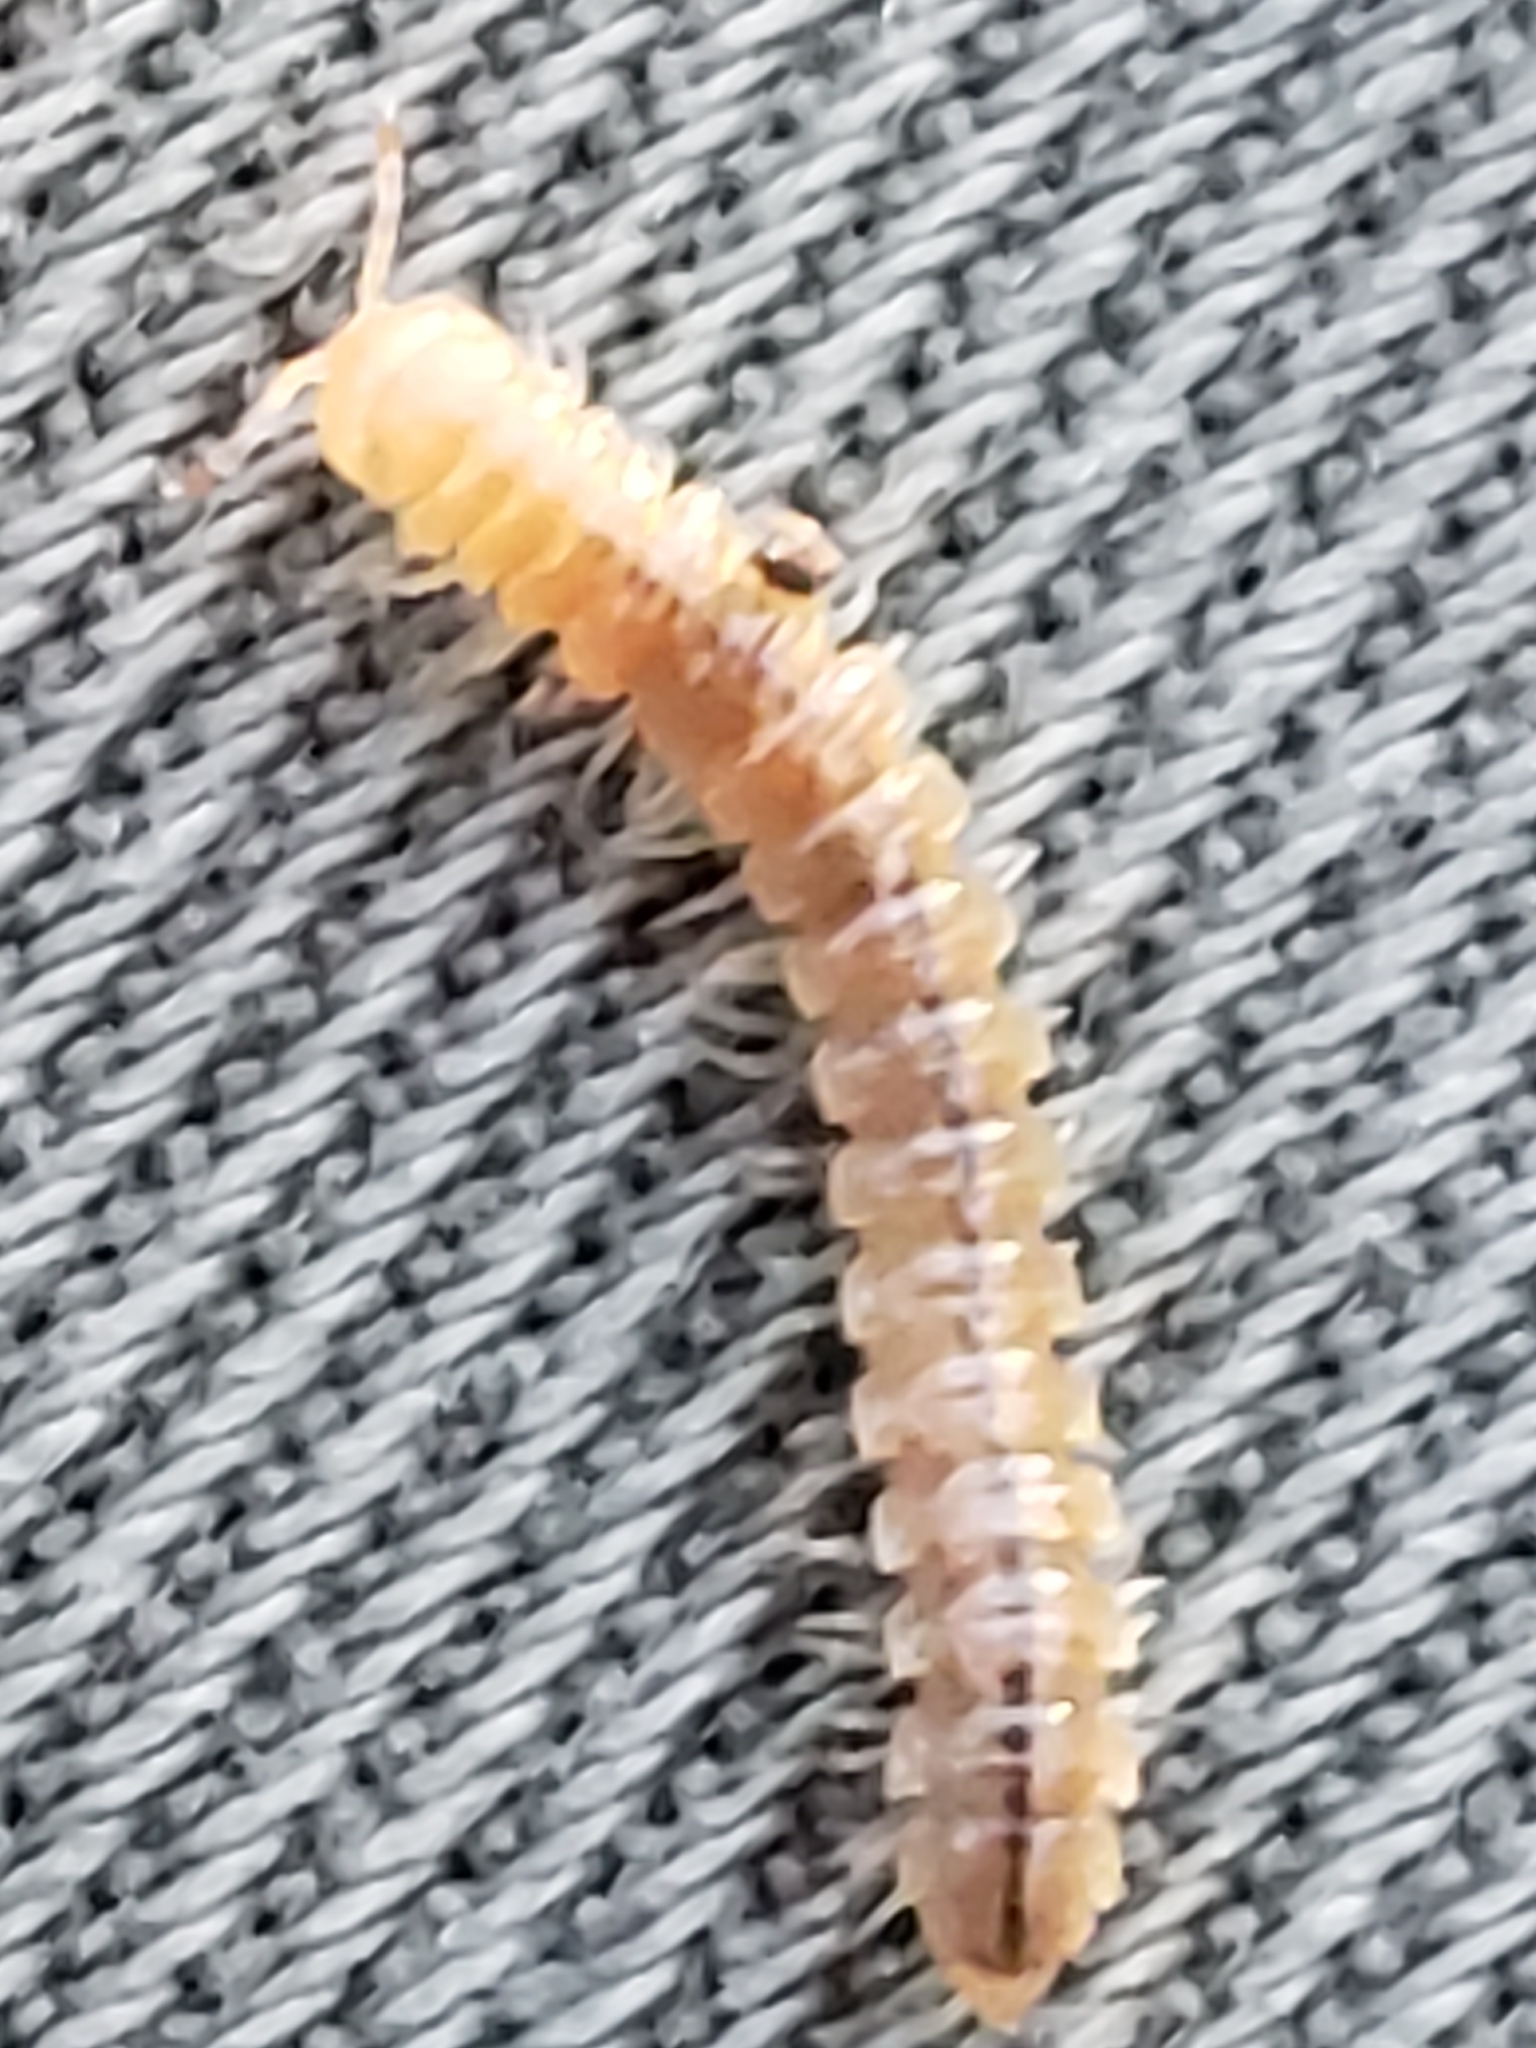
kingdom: Animalia
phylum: Arthropoda
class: Diplopoda
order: Polydesmida
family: Paradoxosomatidae
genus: Oxidus
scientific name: Oxidus gracilis
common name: Greenhouse millipede
